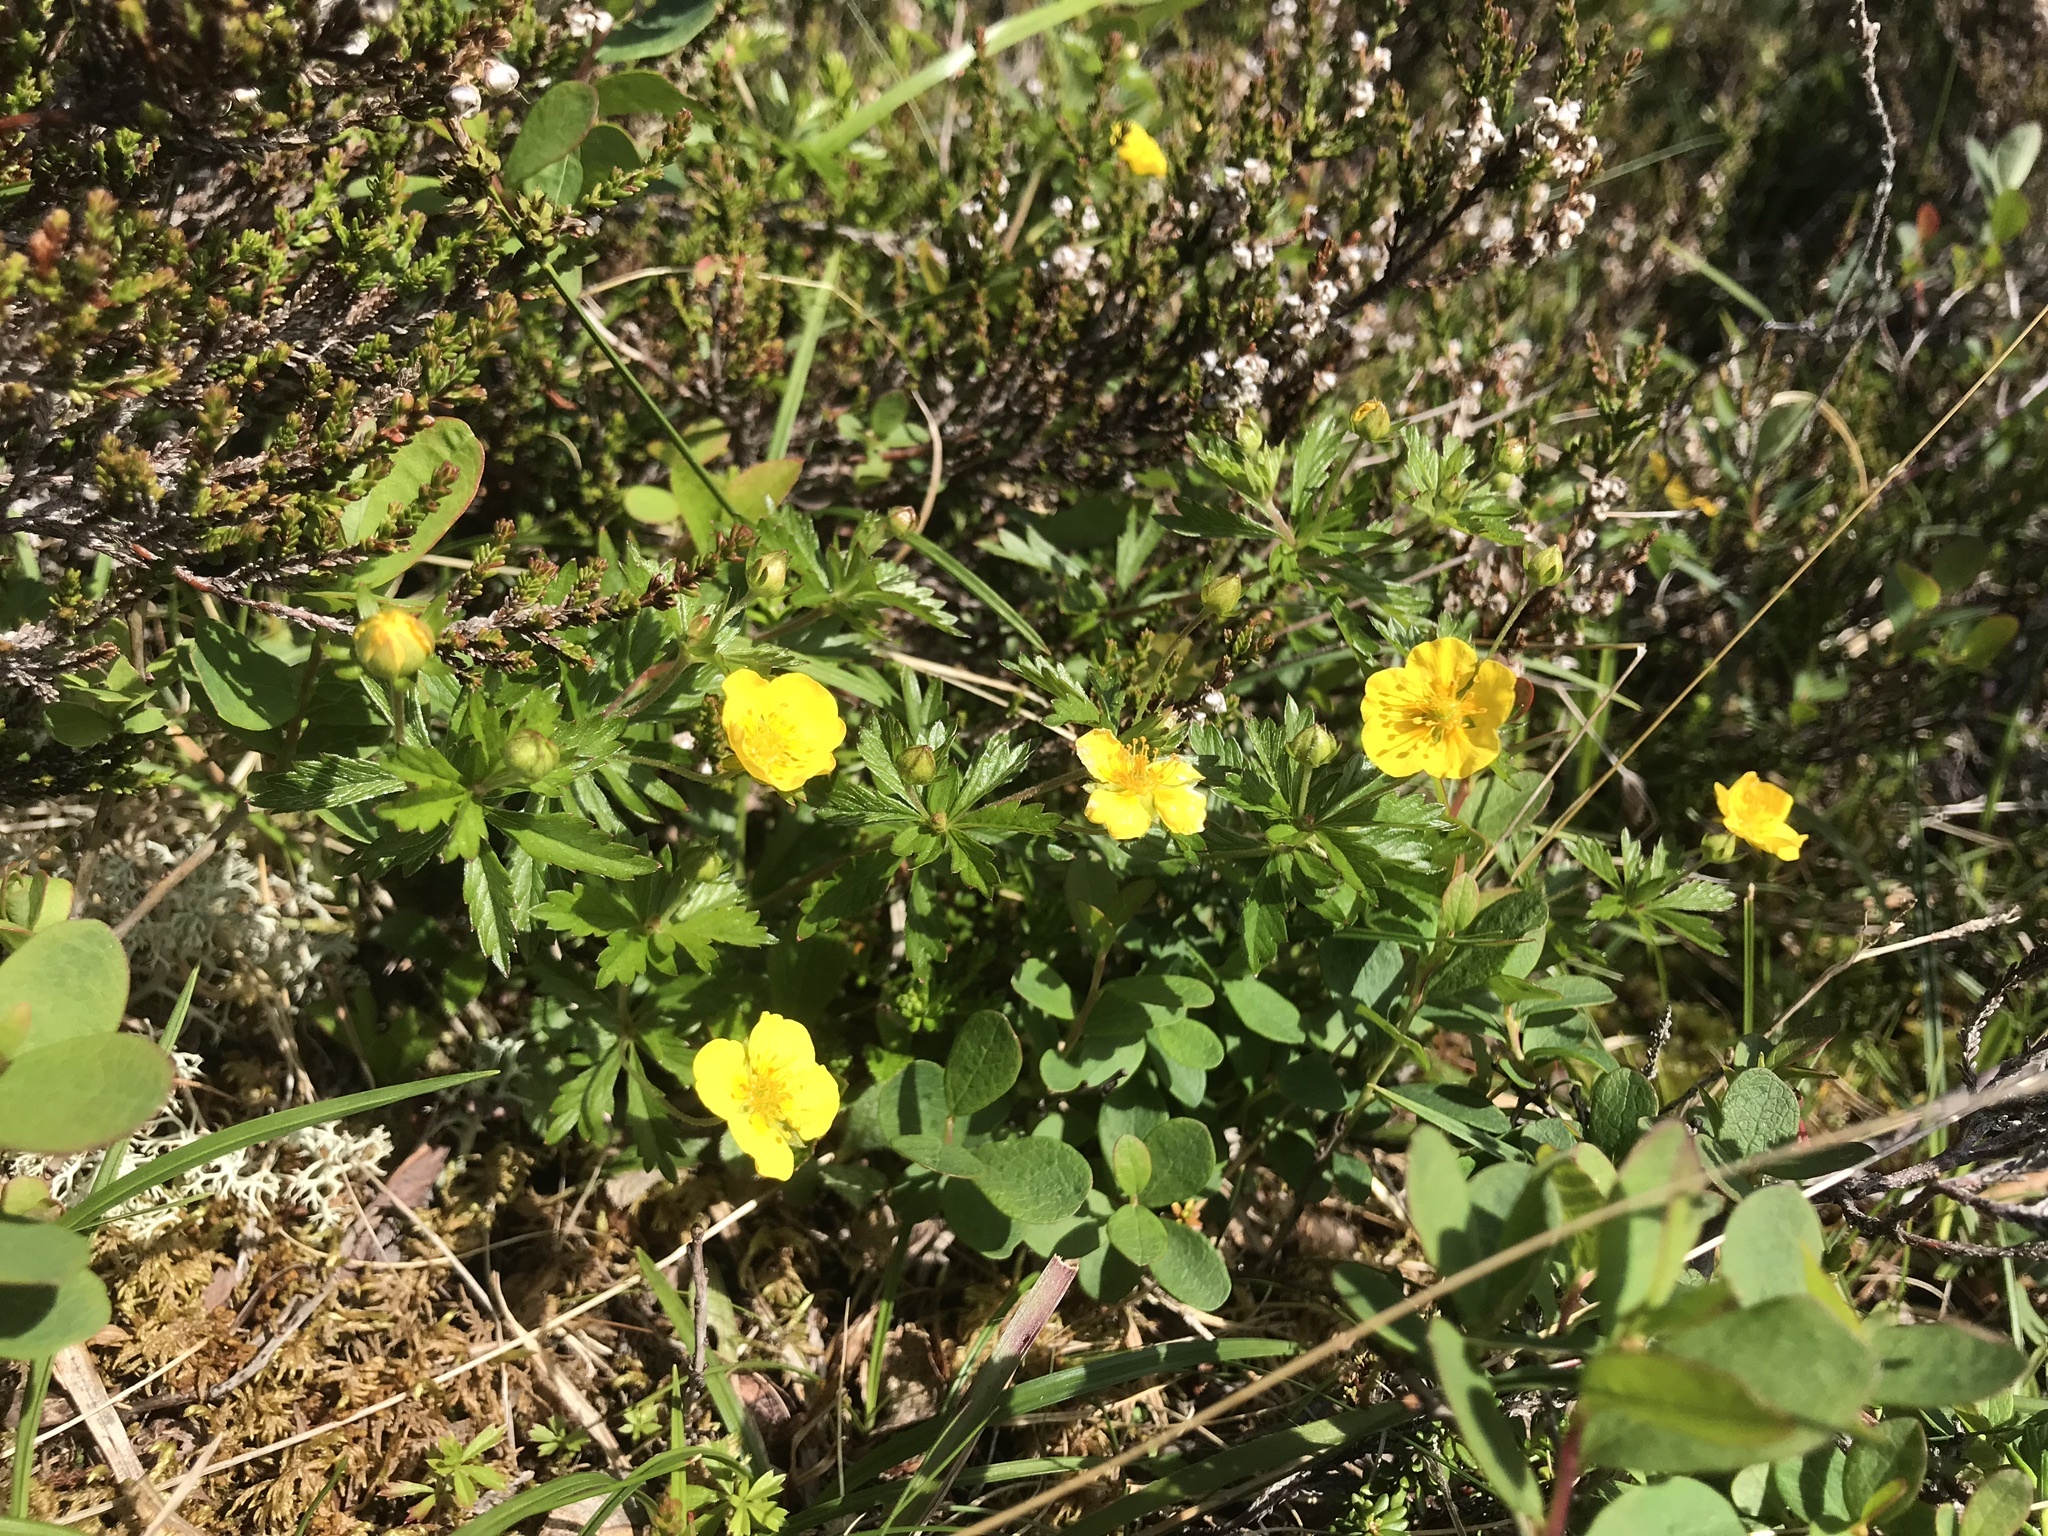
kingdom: Plantae
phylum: Tracheophyta
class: Magnoliopsida
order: Rosales
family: Rosaceae
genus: Potentilla
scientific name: Potentilla erecta
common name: Tormentil
